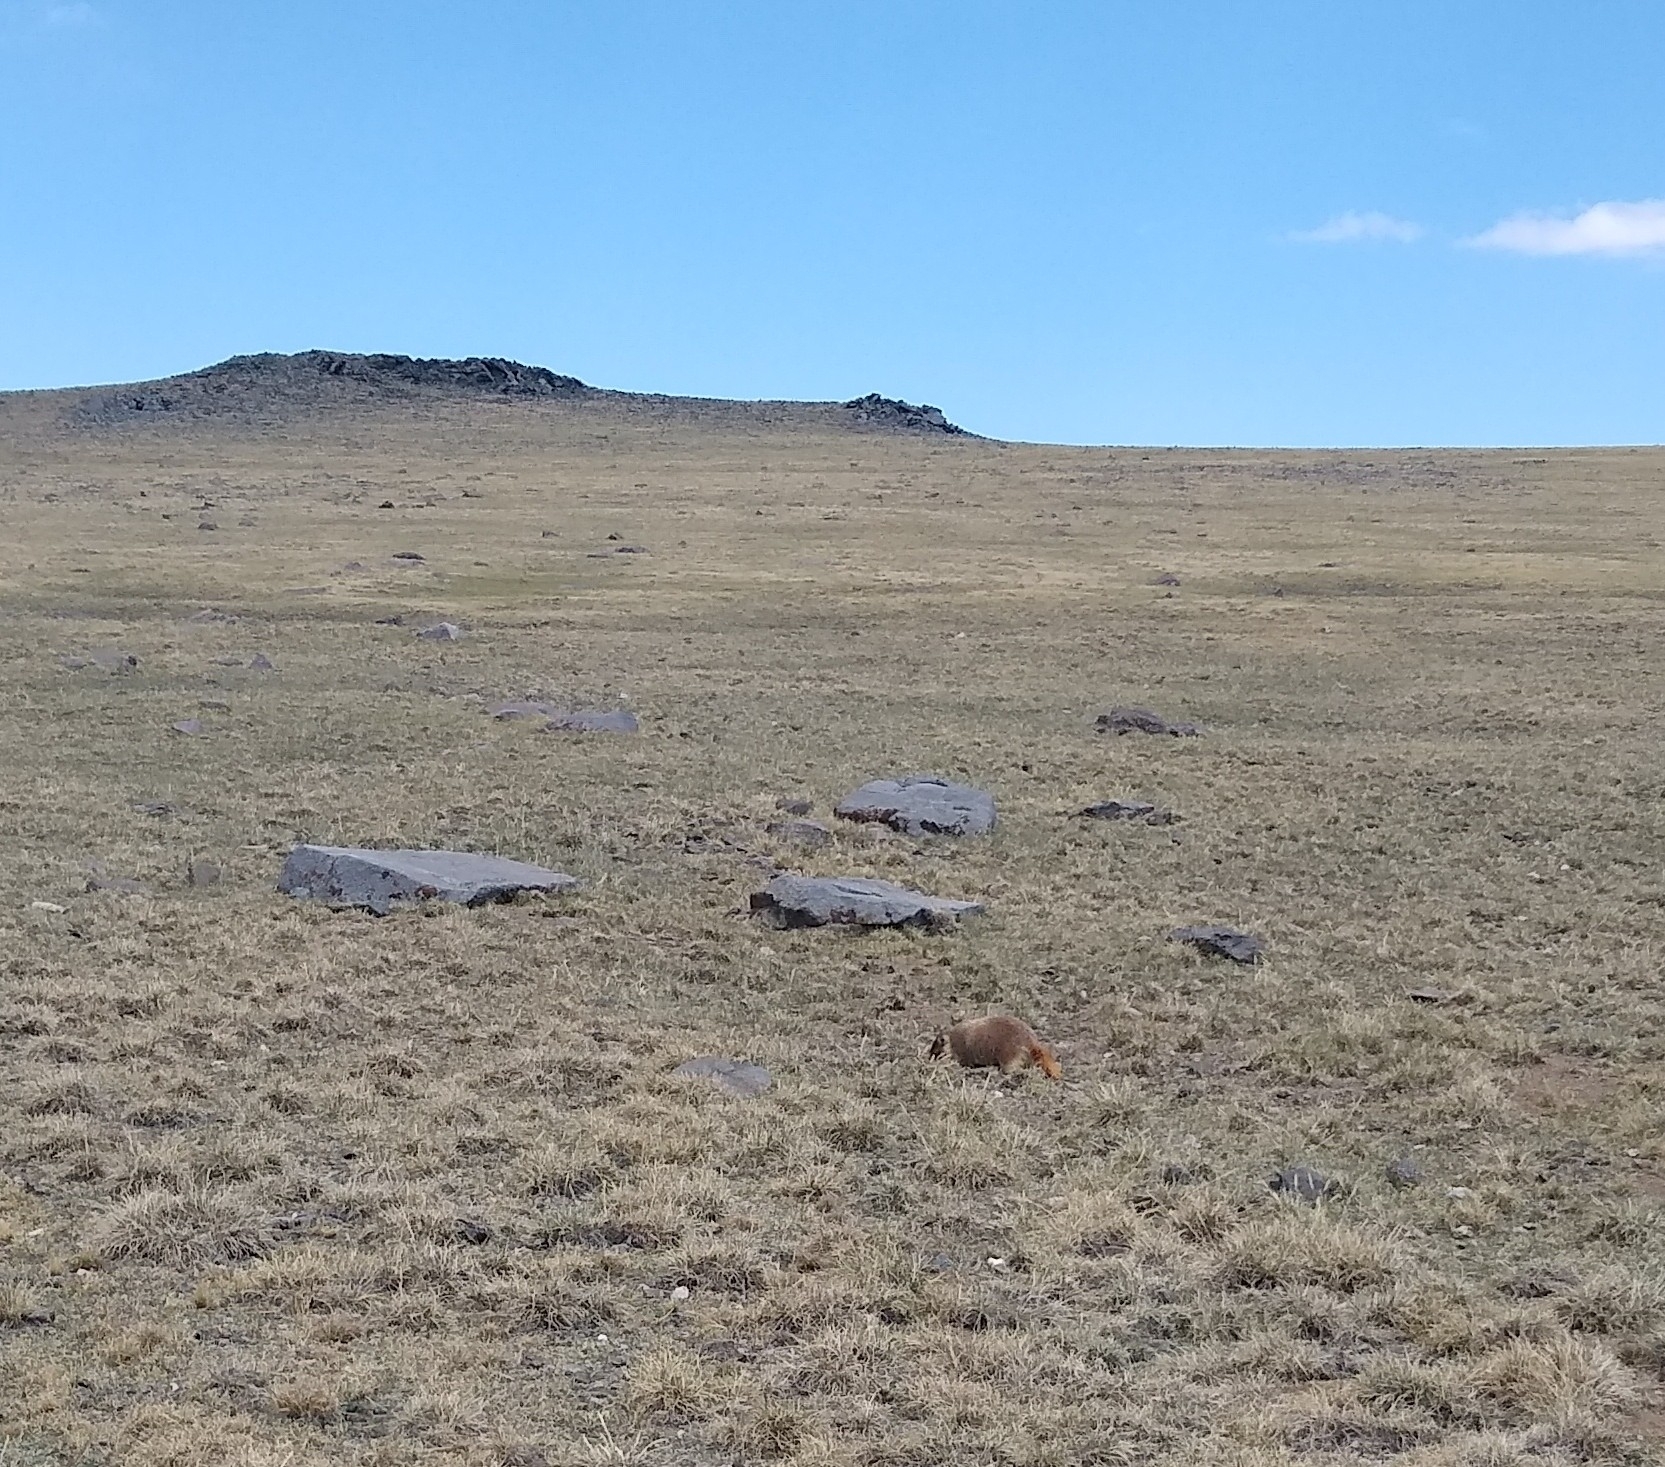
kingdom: Animalia
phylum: Chordata
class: Mammalia
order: Rodentia
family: Sciuridae
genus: Marmota
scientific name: Marmota flaviventris
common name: Yellow-bellied marmot
